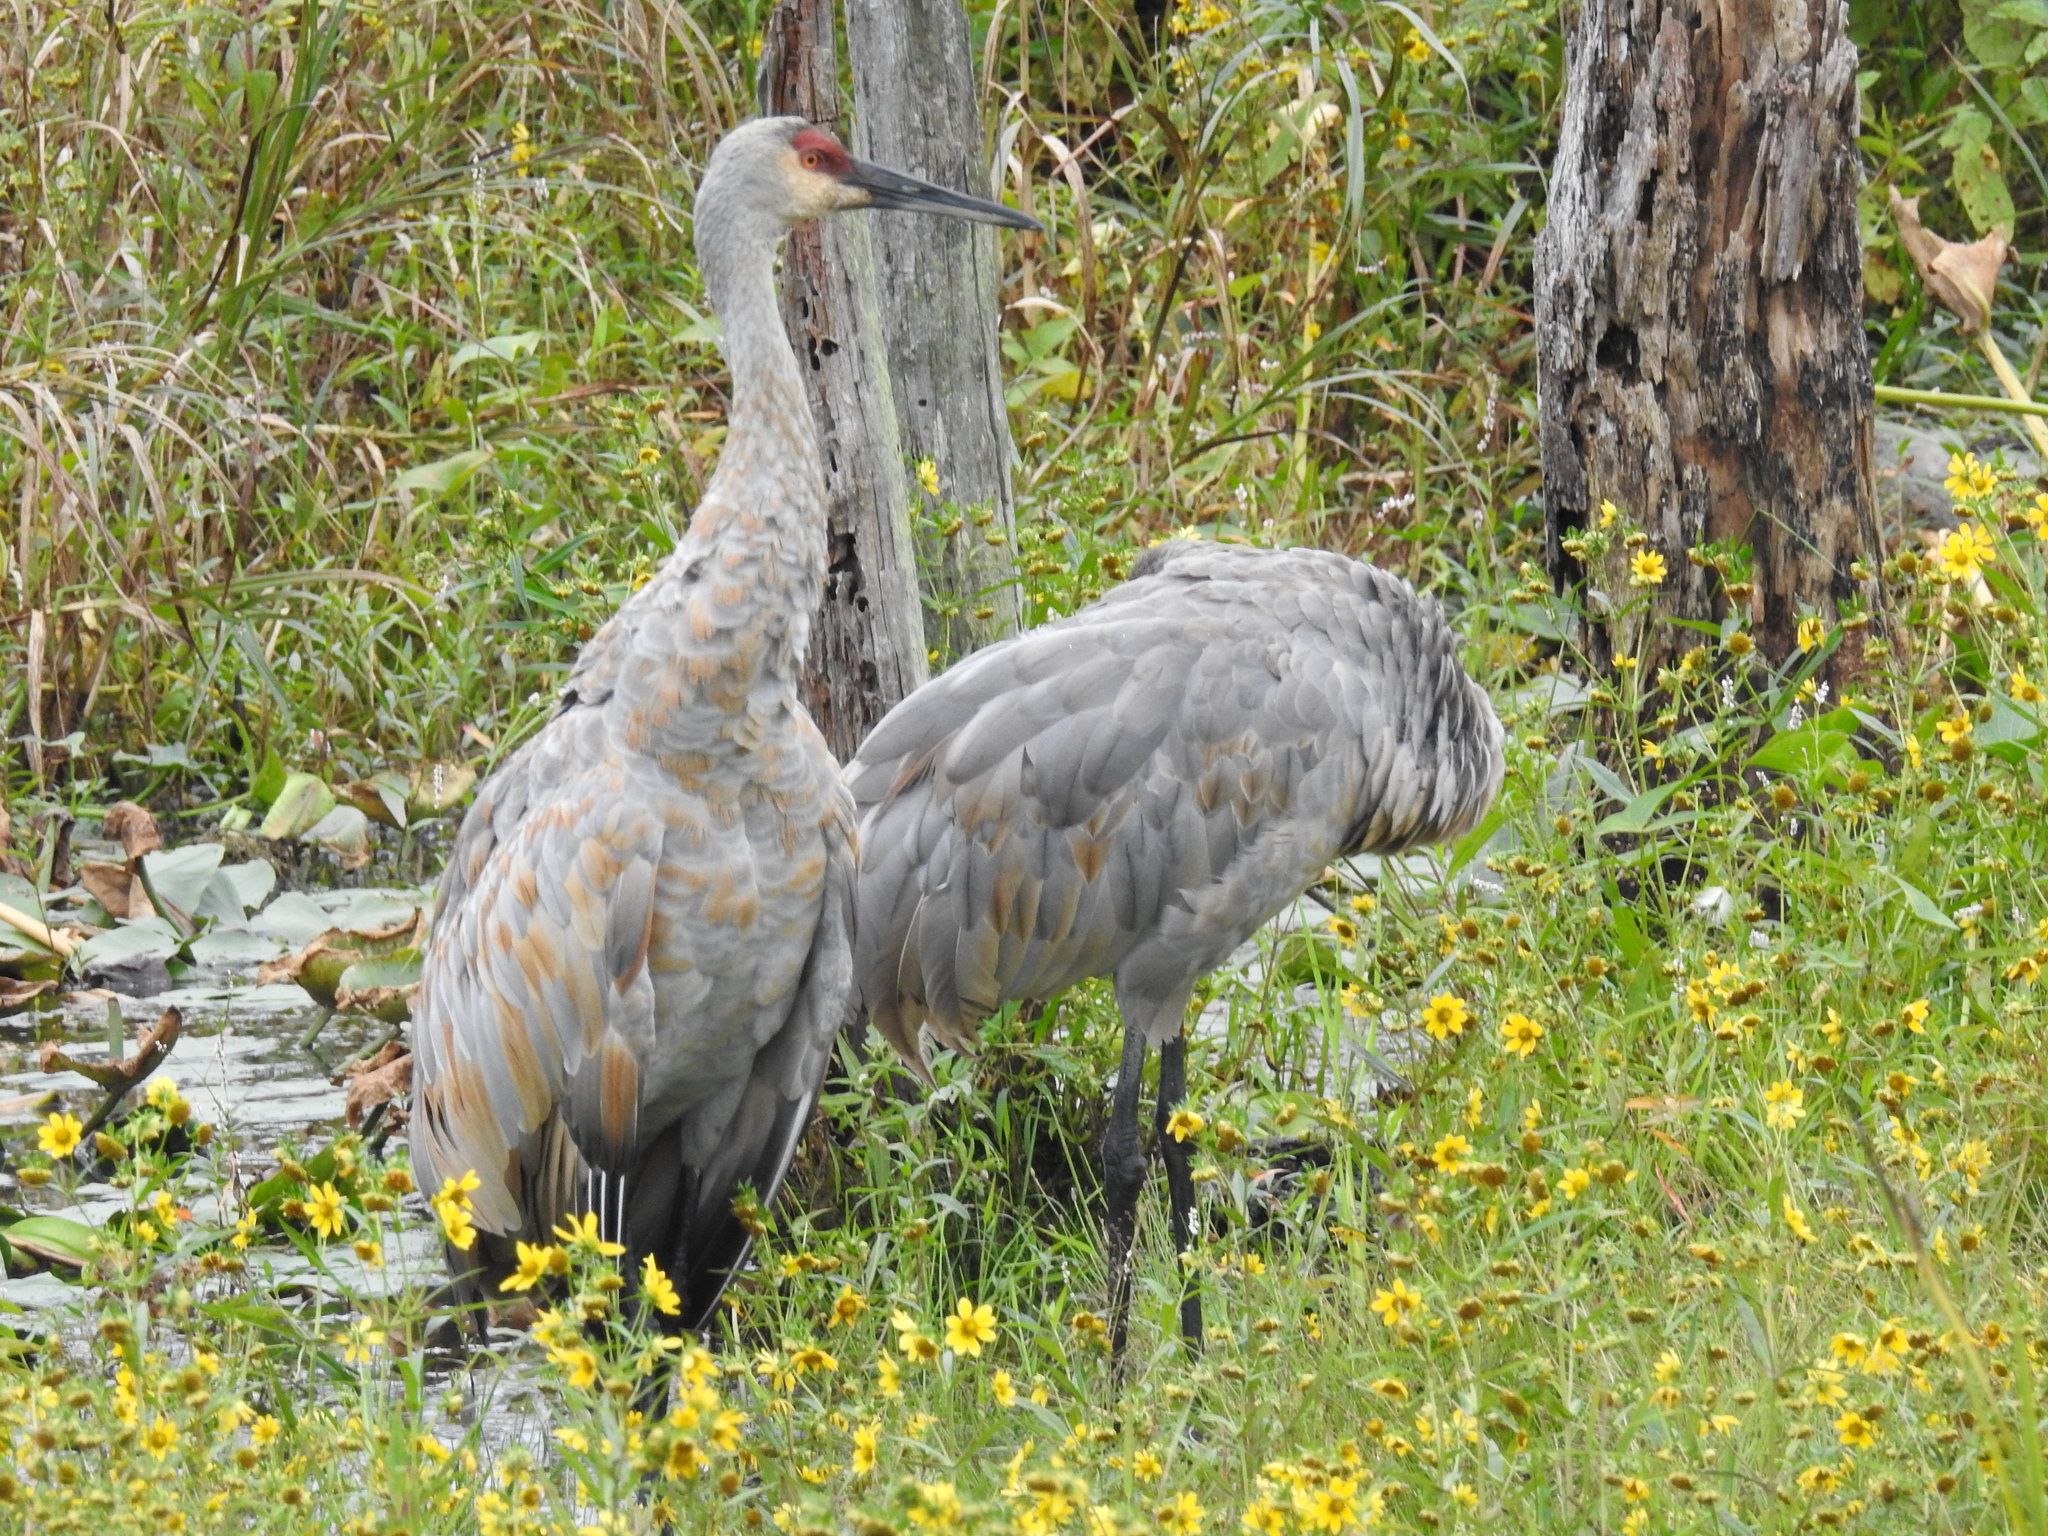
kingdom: Animalia
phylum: Chordata
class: Aves
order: Gruiformes
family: Gruidae
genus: Grus
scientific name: Grus canadensis
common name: Sandhill crane
